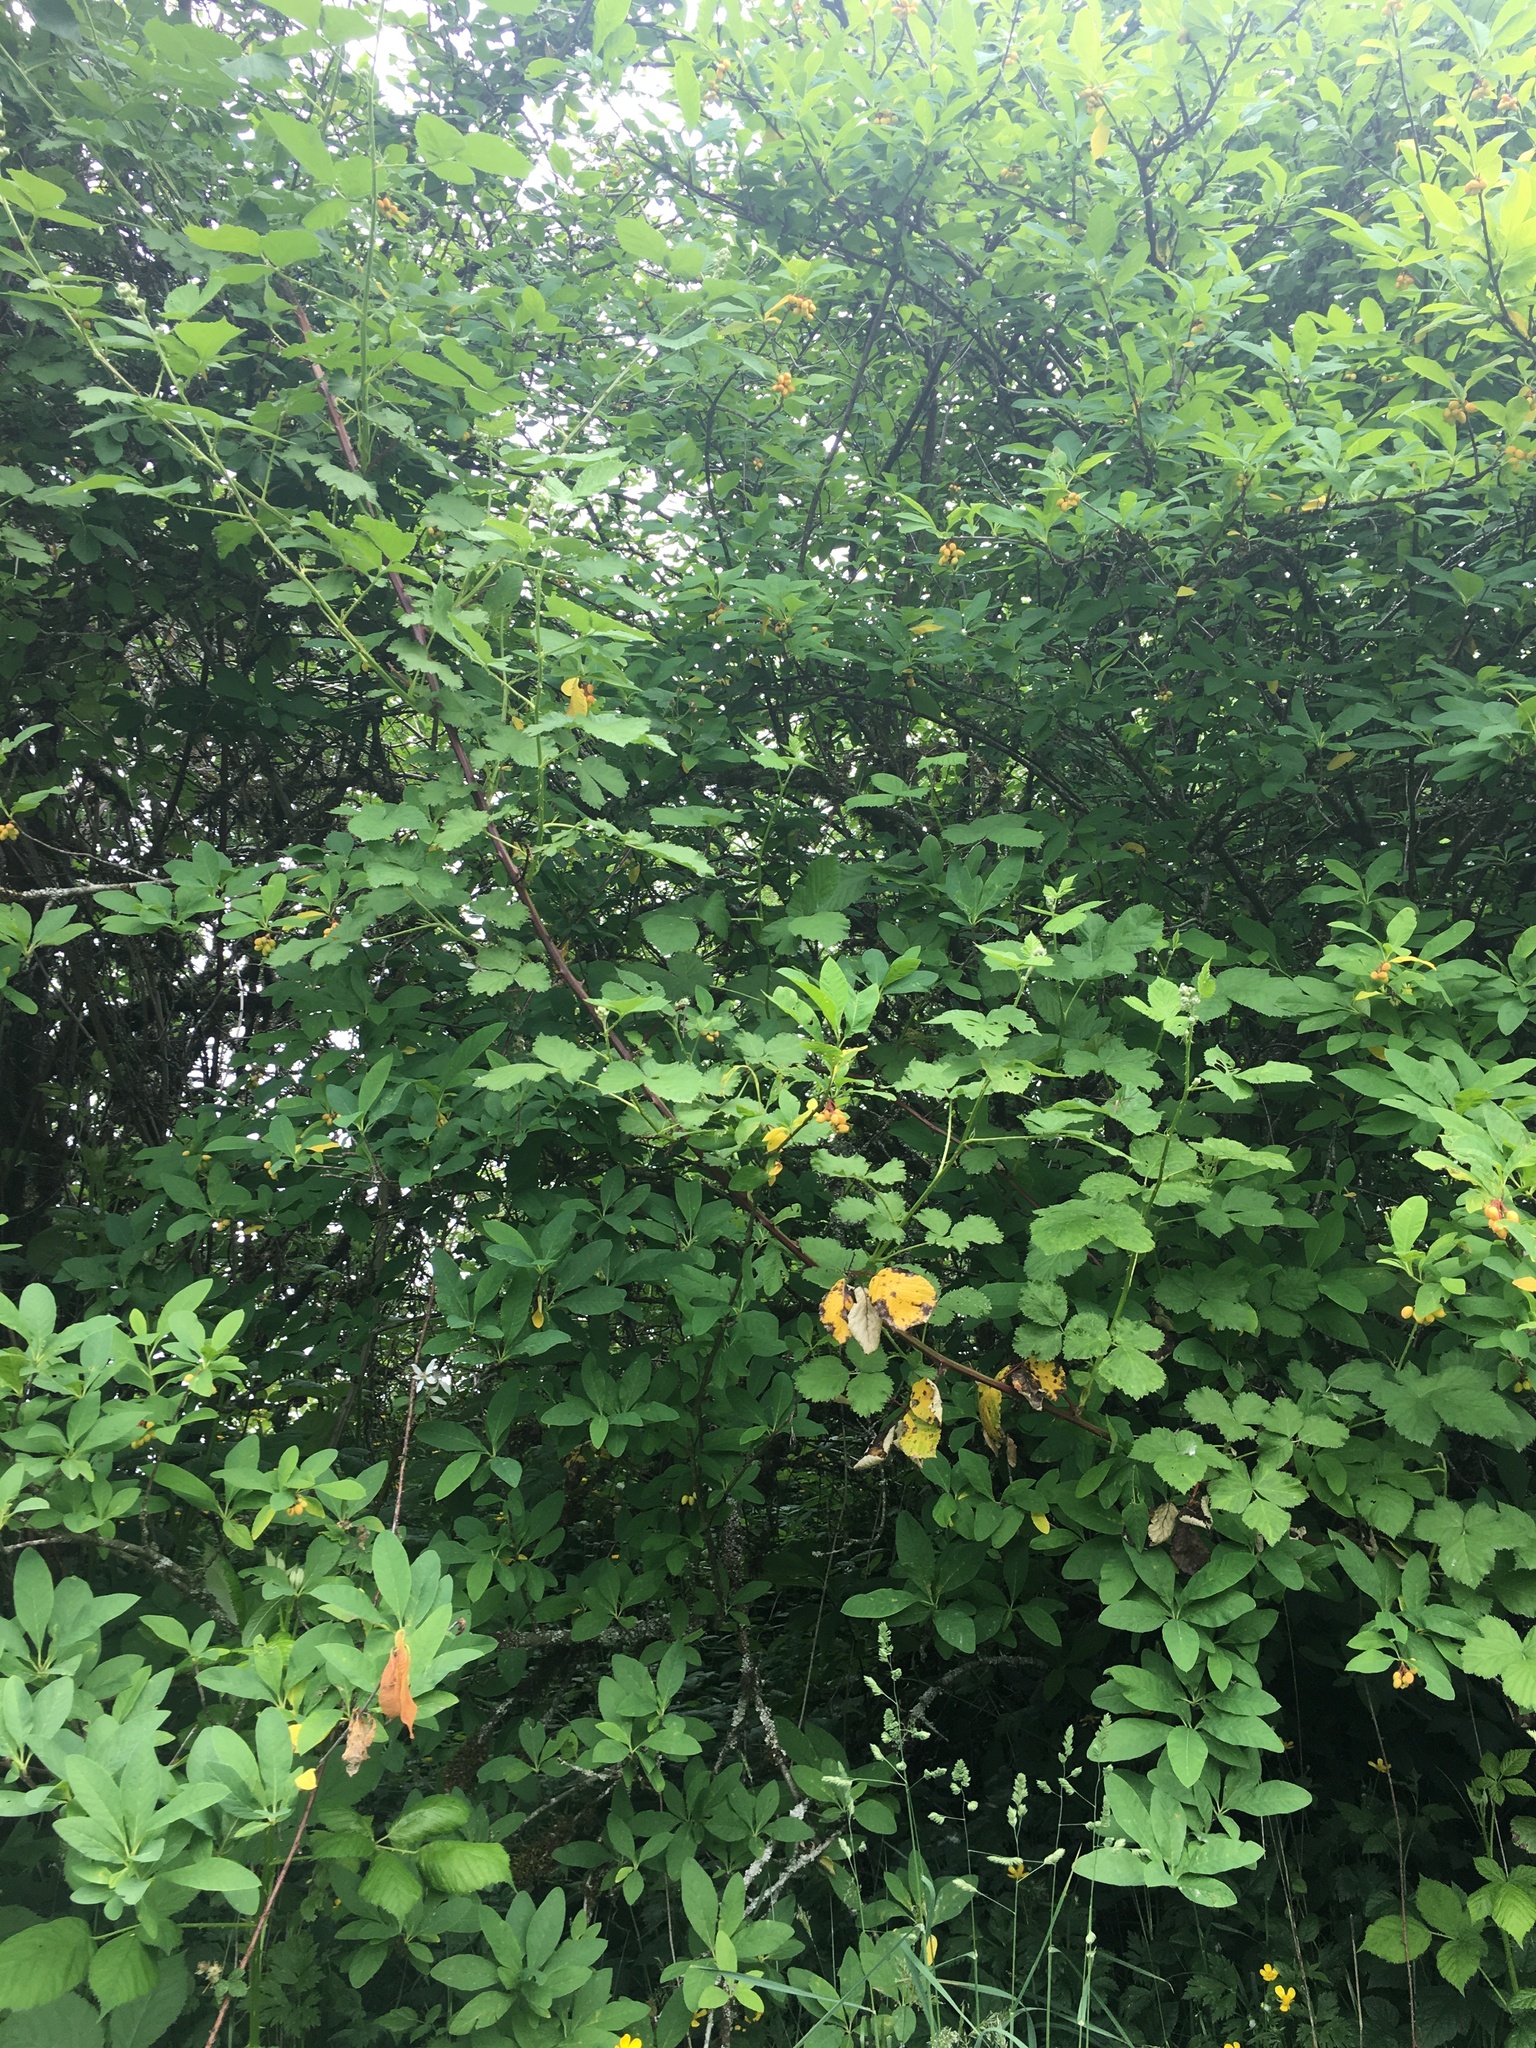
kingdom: Plantae
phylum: Tracheophyta
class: Magnoliopsida
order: Rosales
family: Rosaceae
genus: Oemleria
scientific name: Oemleria cerasiformis
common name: Osoberry
